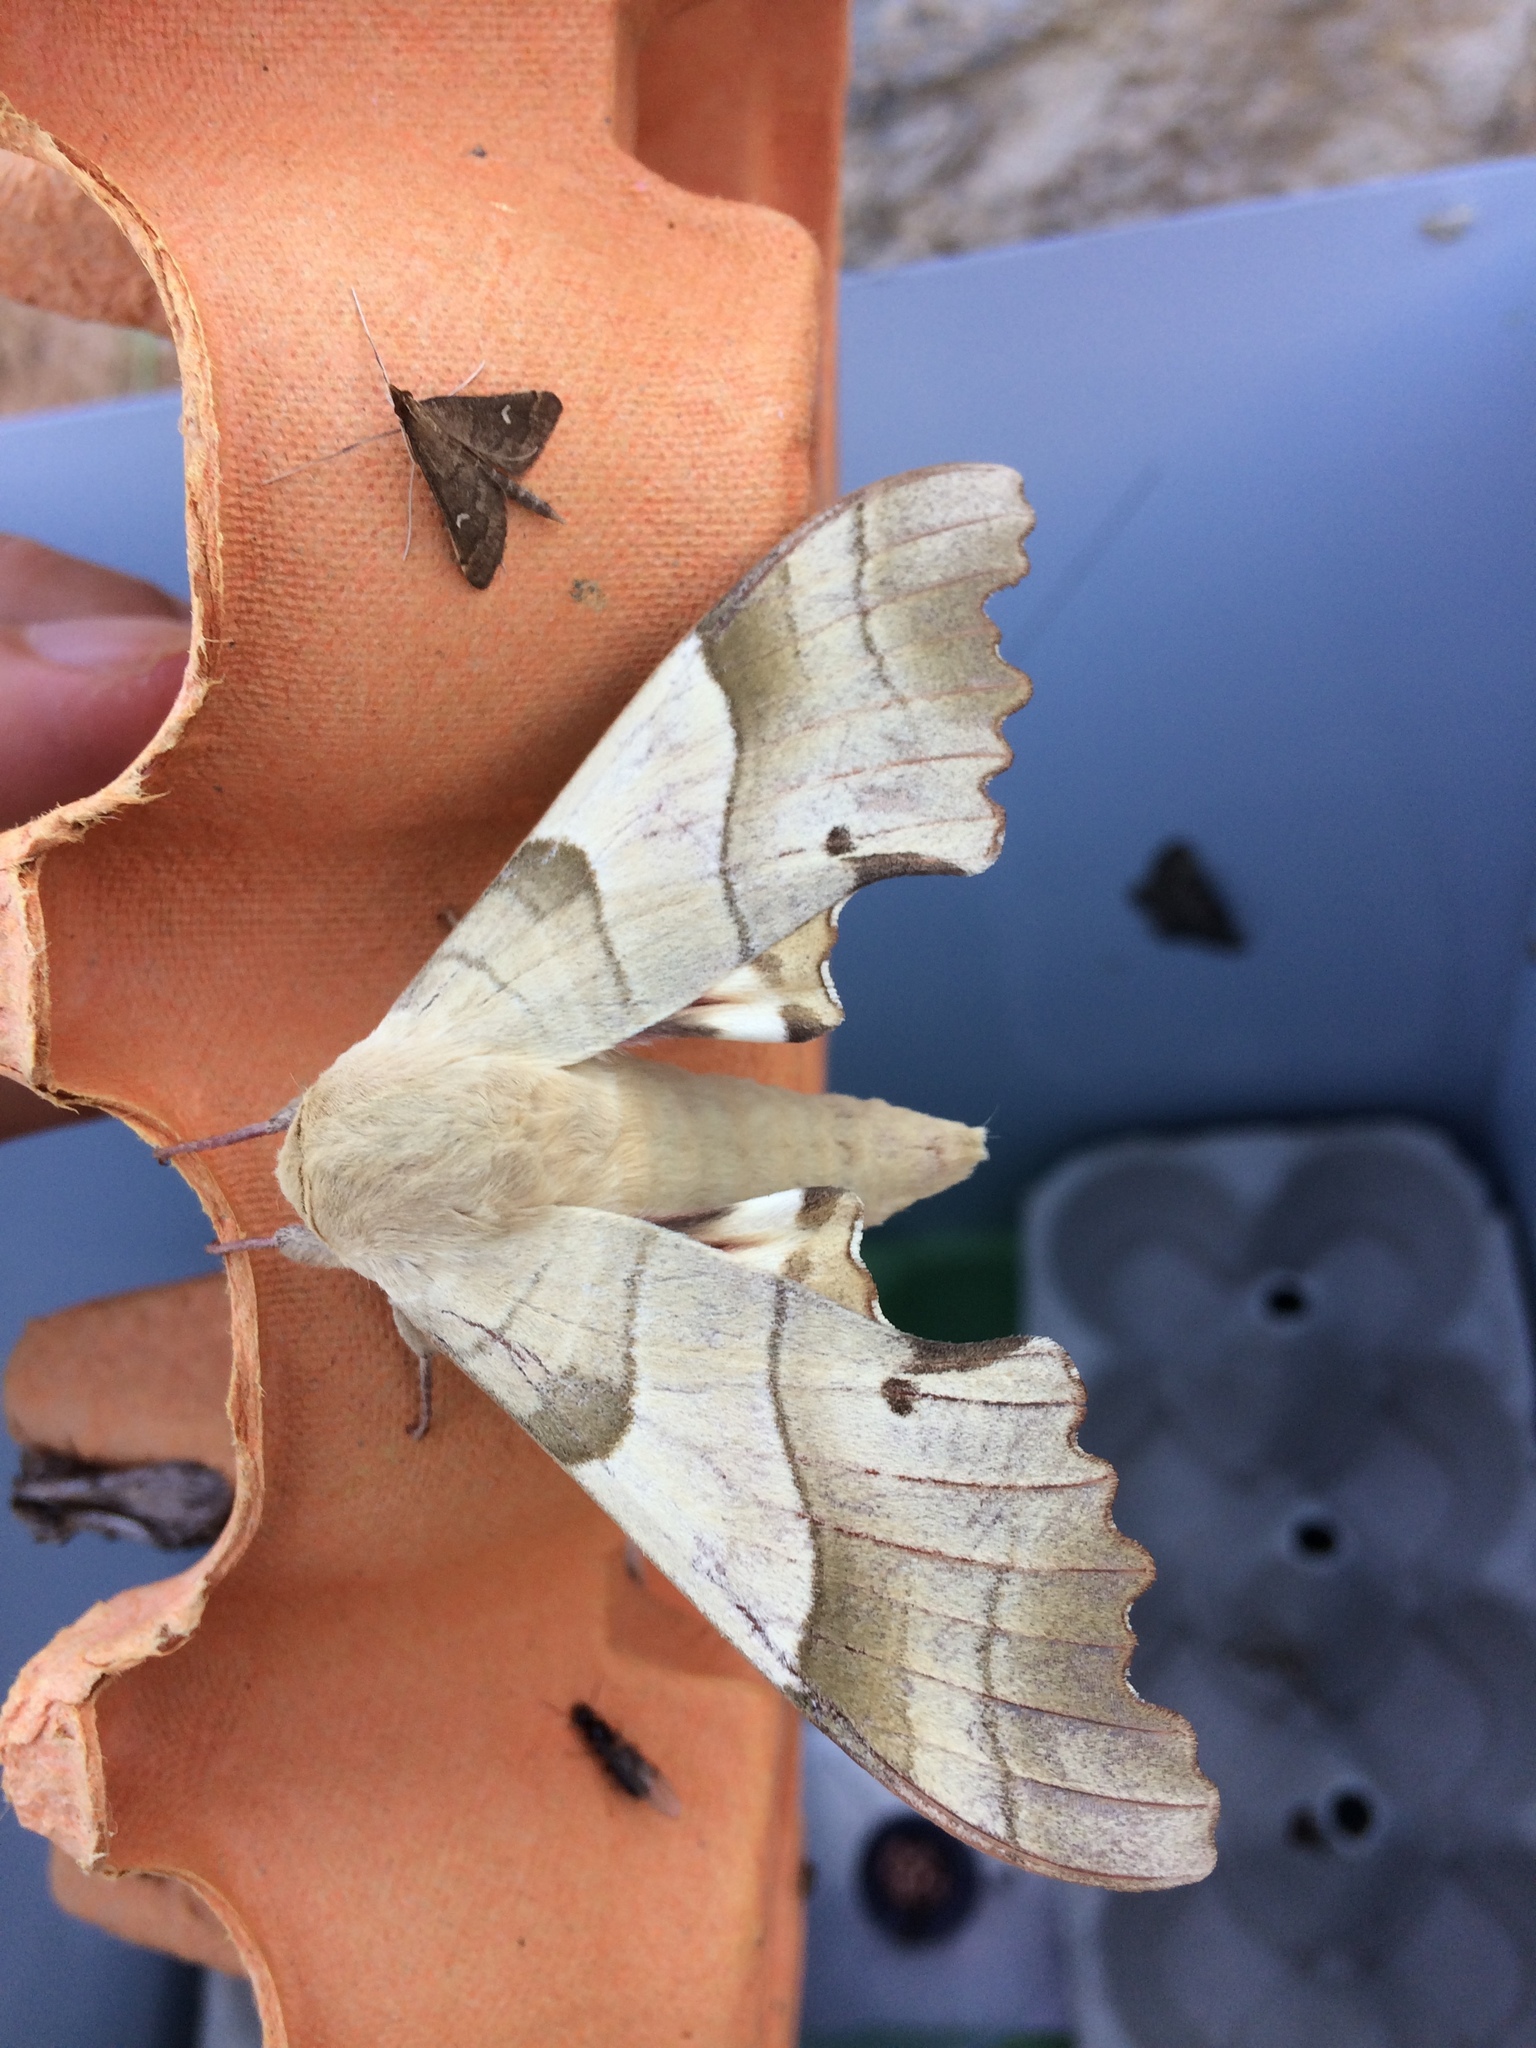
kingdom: Animalia
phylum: Arthropoda
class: Insecta
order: Lepidoptera
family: Sphingidae
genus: Marumba
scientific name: Marumba quercus
